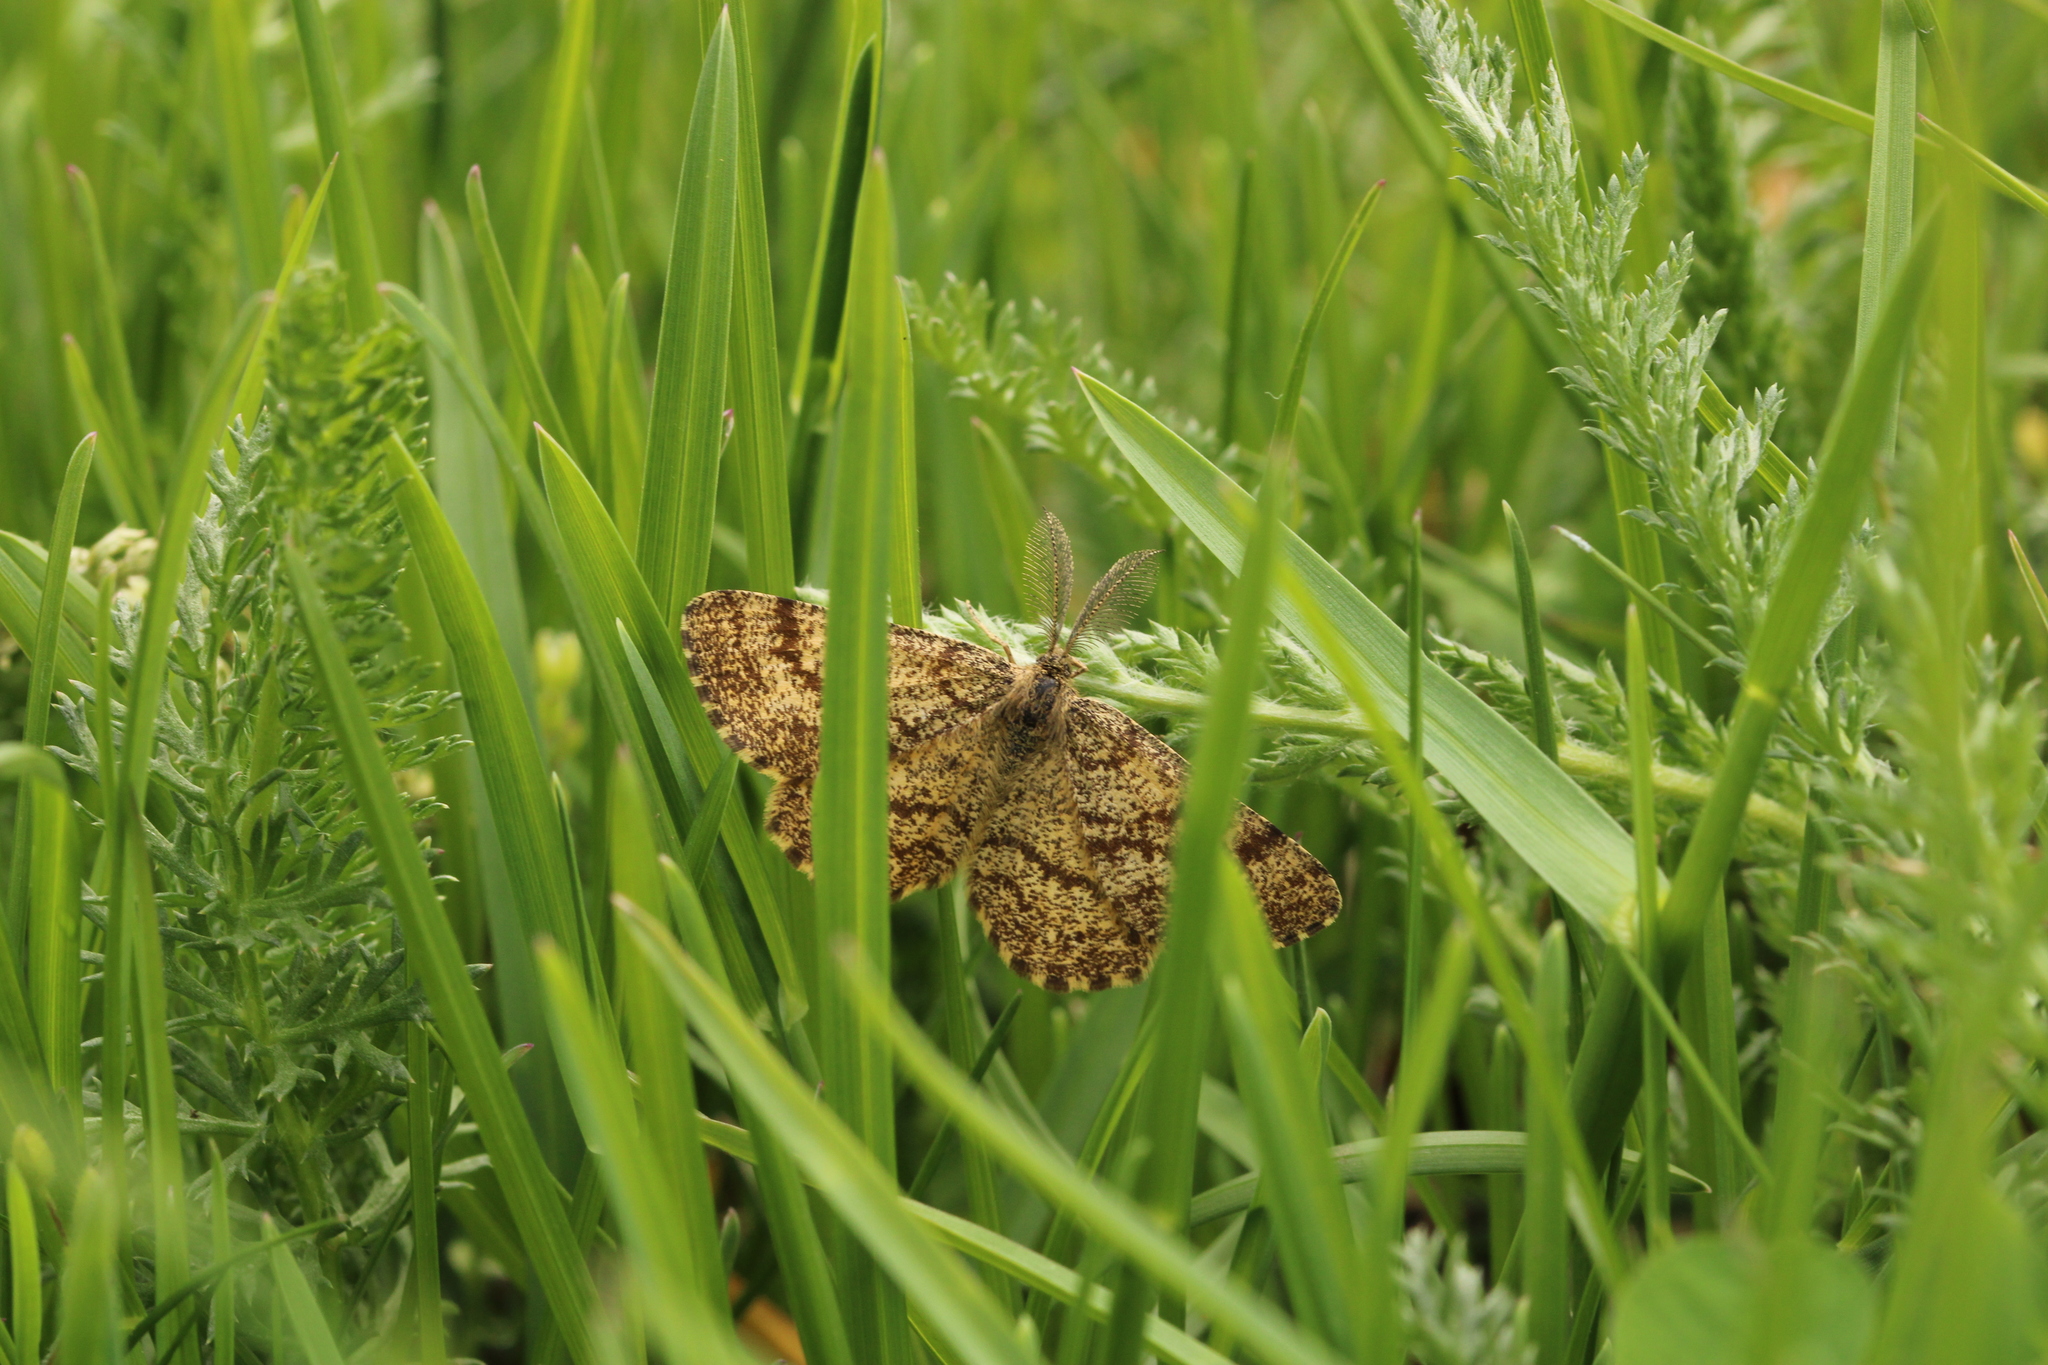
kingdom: Animalia
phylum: Arthropoda
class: Insecta
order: Lepidoptera
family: Geometridae
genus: Ematurga
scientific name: Ematurga atomaria
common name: Common heath
